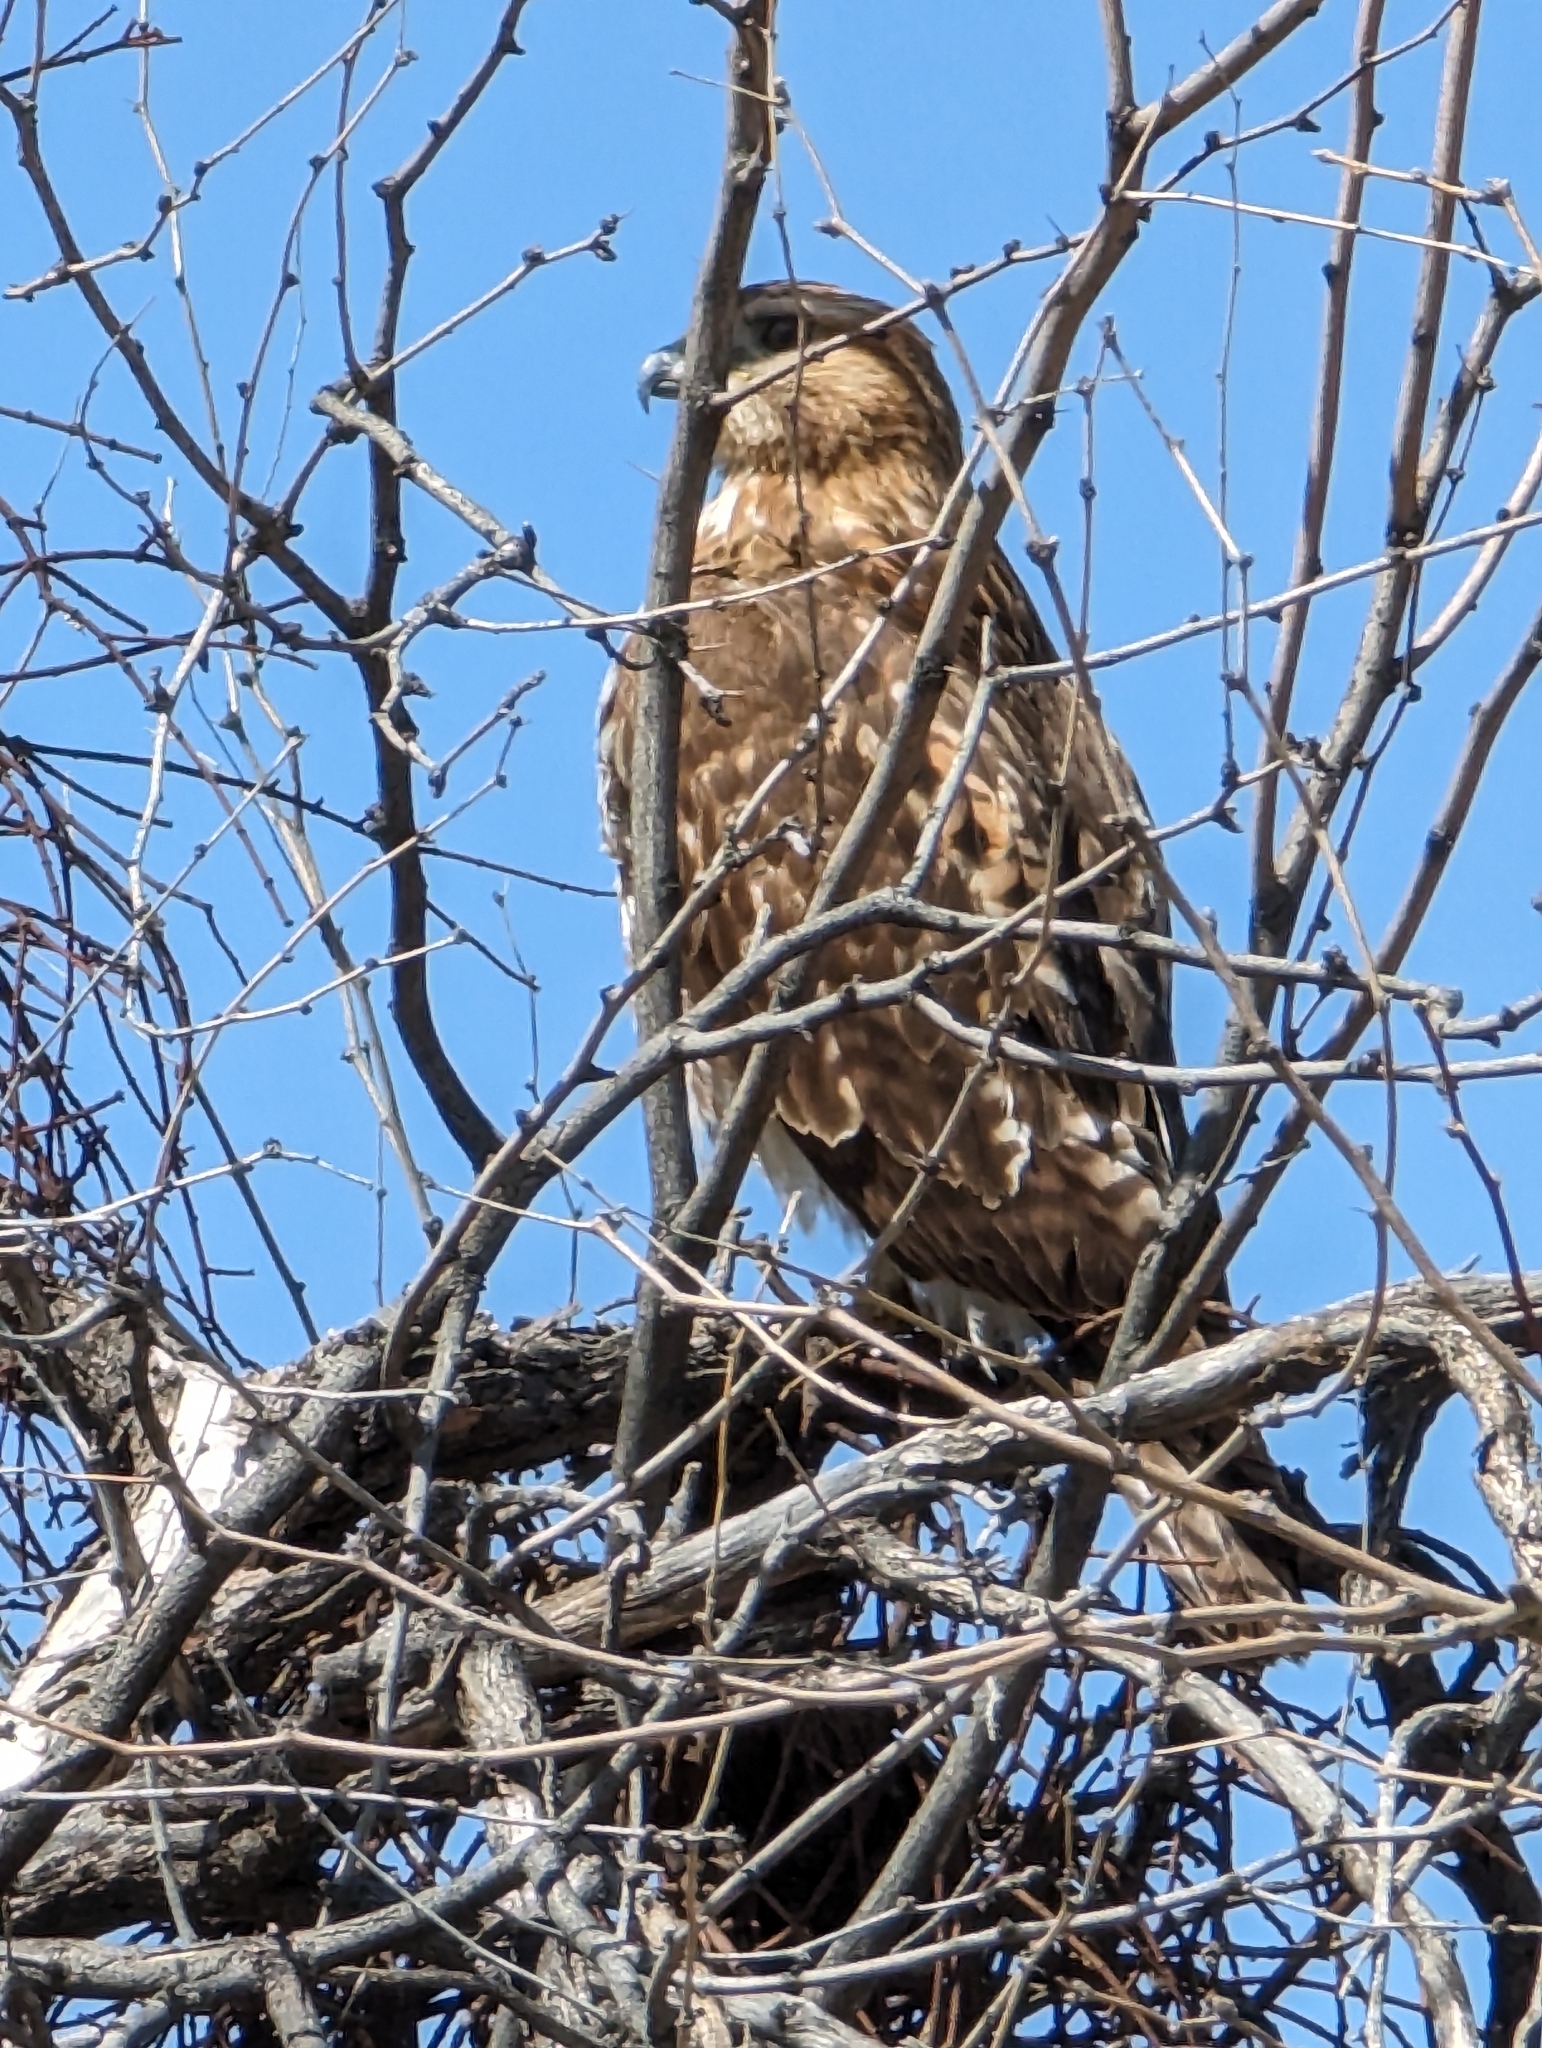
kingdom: Animalia
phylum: Chordata
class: Aves
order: Accipitriformes
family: Accipitridae
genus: Buteo
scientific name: Buteo jamaicensis
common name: Red-tailed hawk
